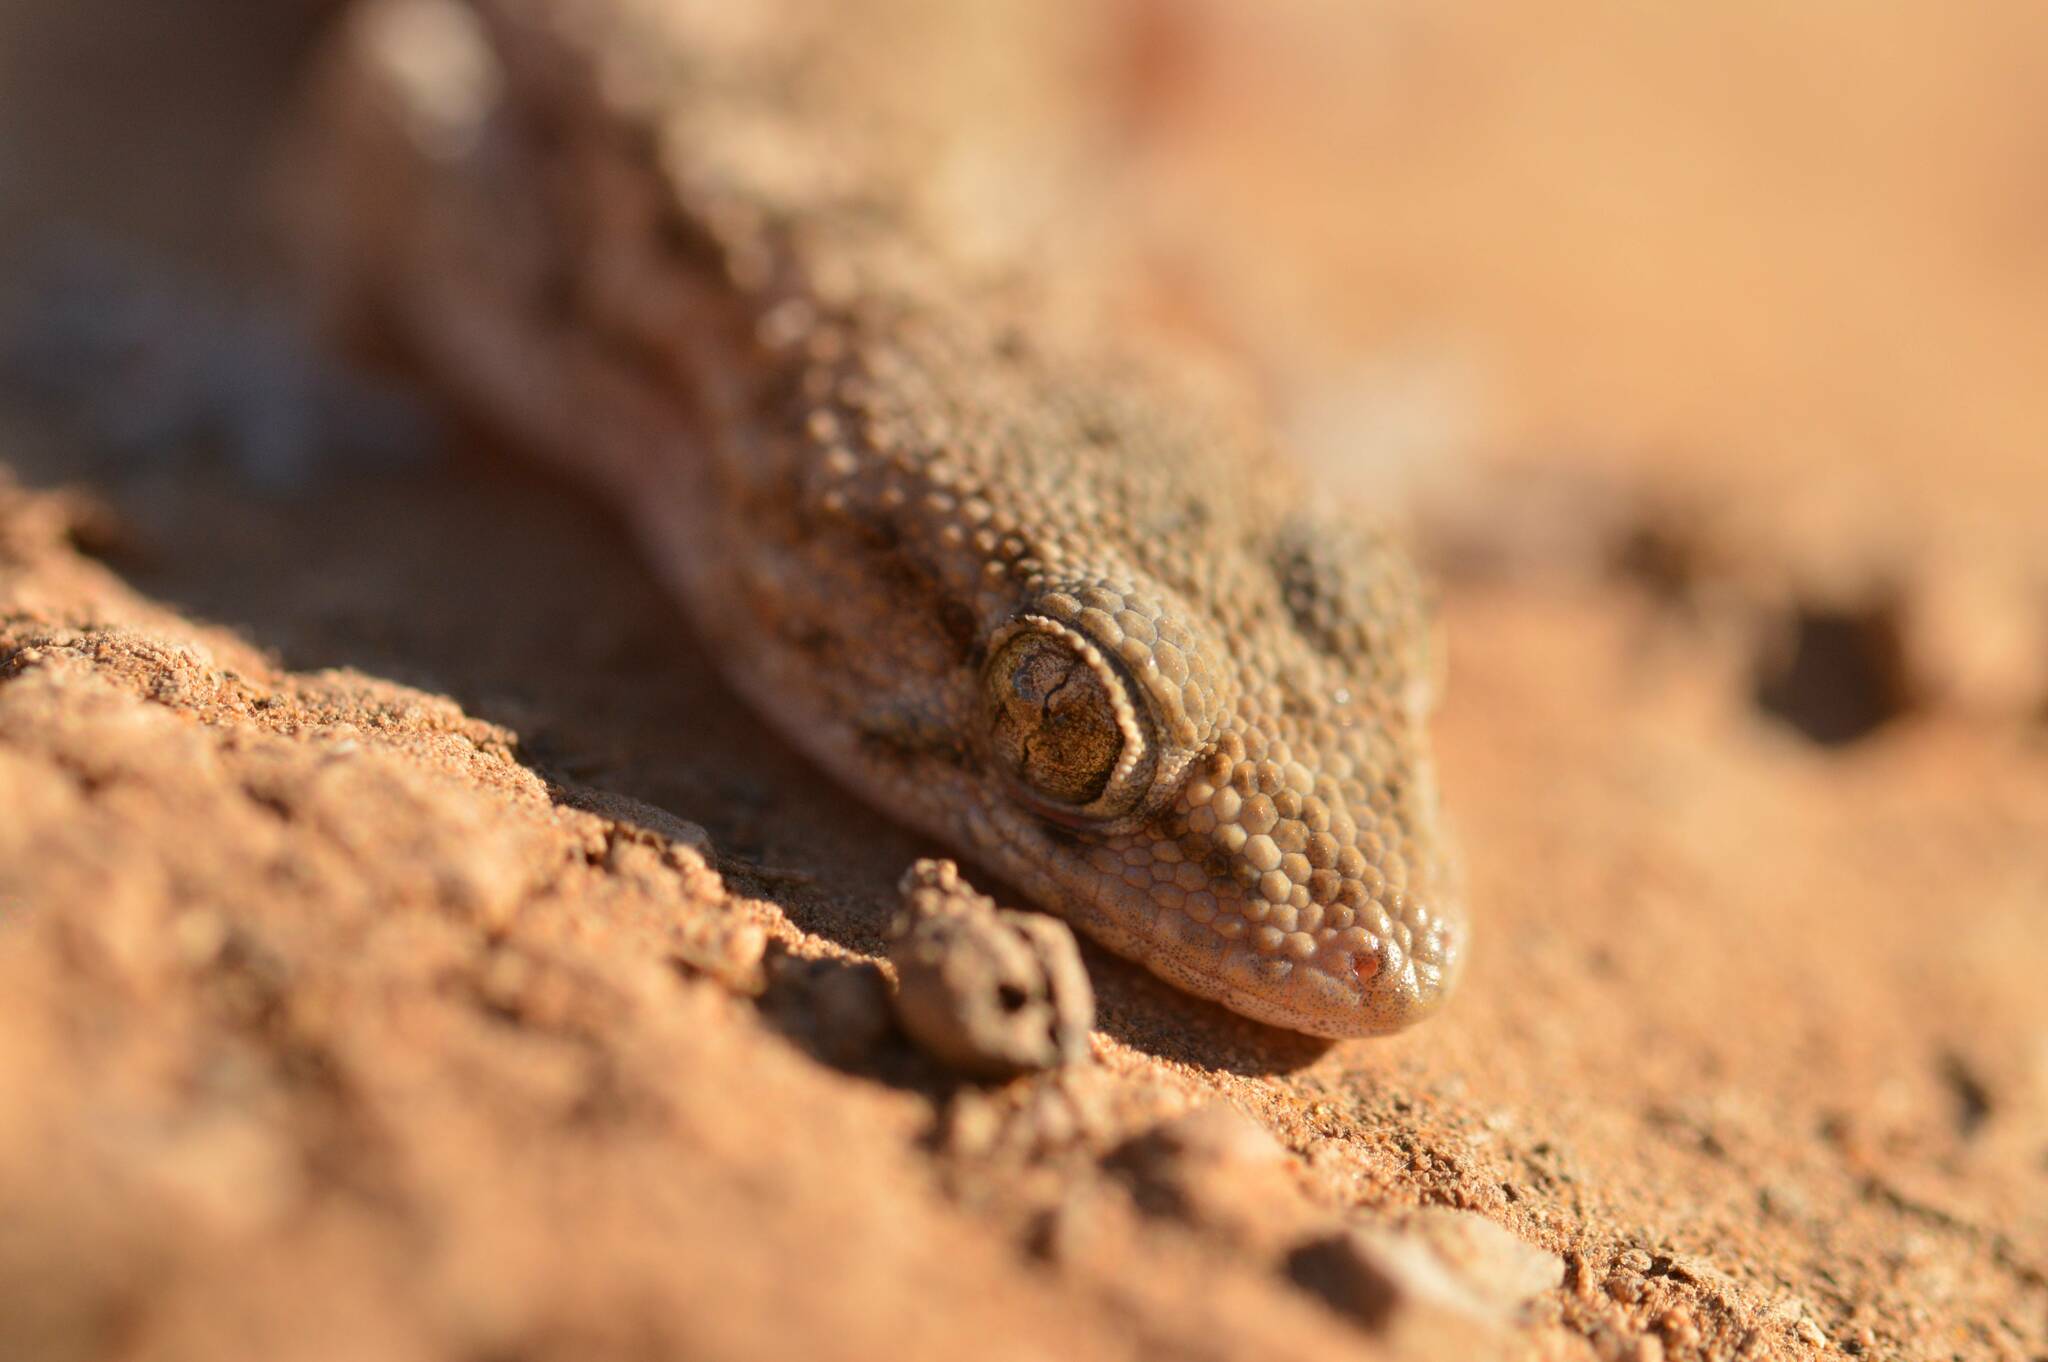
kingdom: Animalia
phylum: Chordata
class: Squamata
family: Phyllodactylidae
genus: Tarentola
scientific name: Tarentola mauritanica
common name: Moorish gecko
